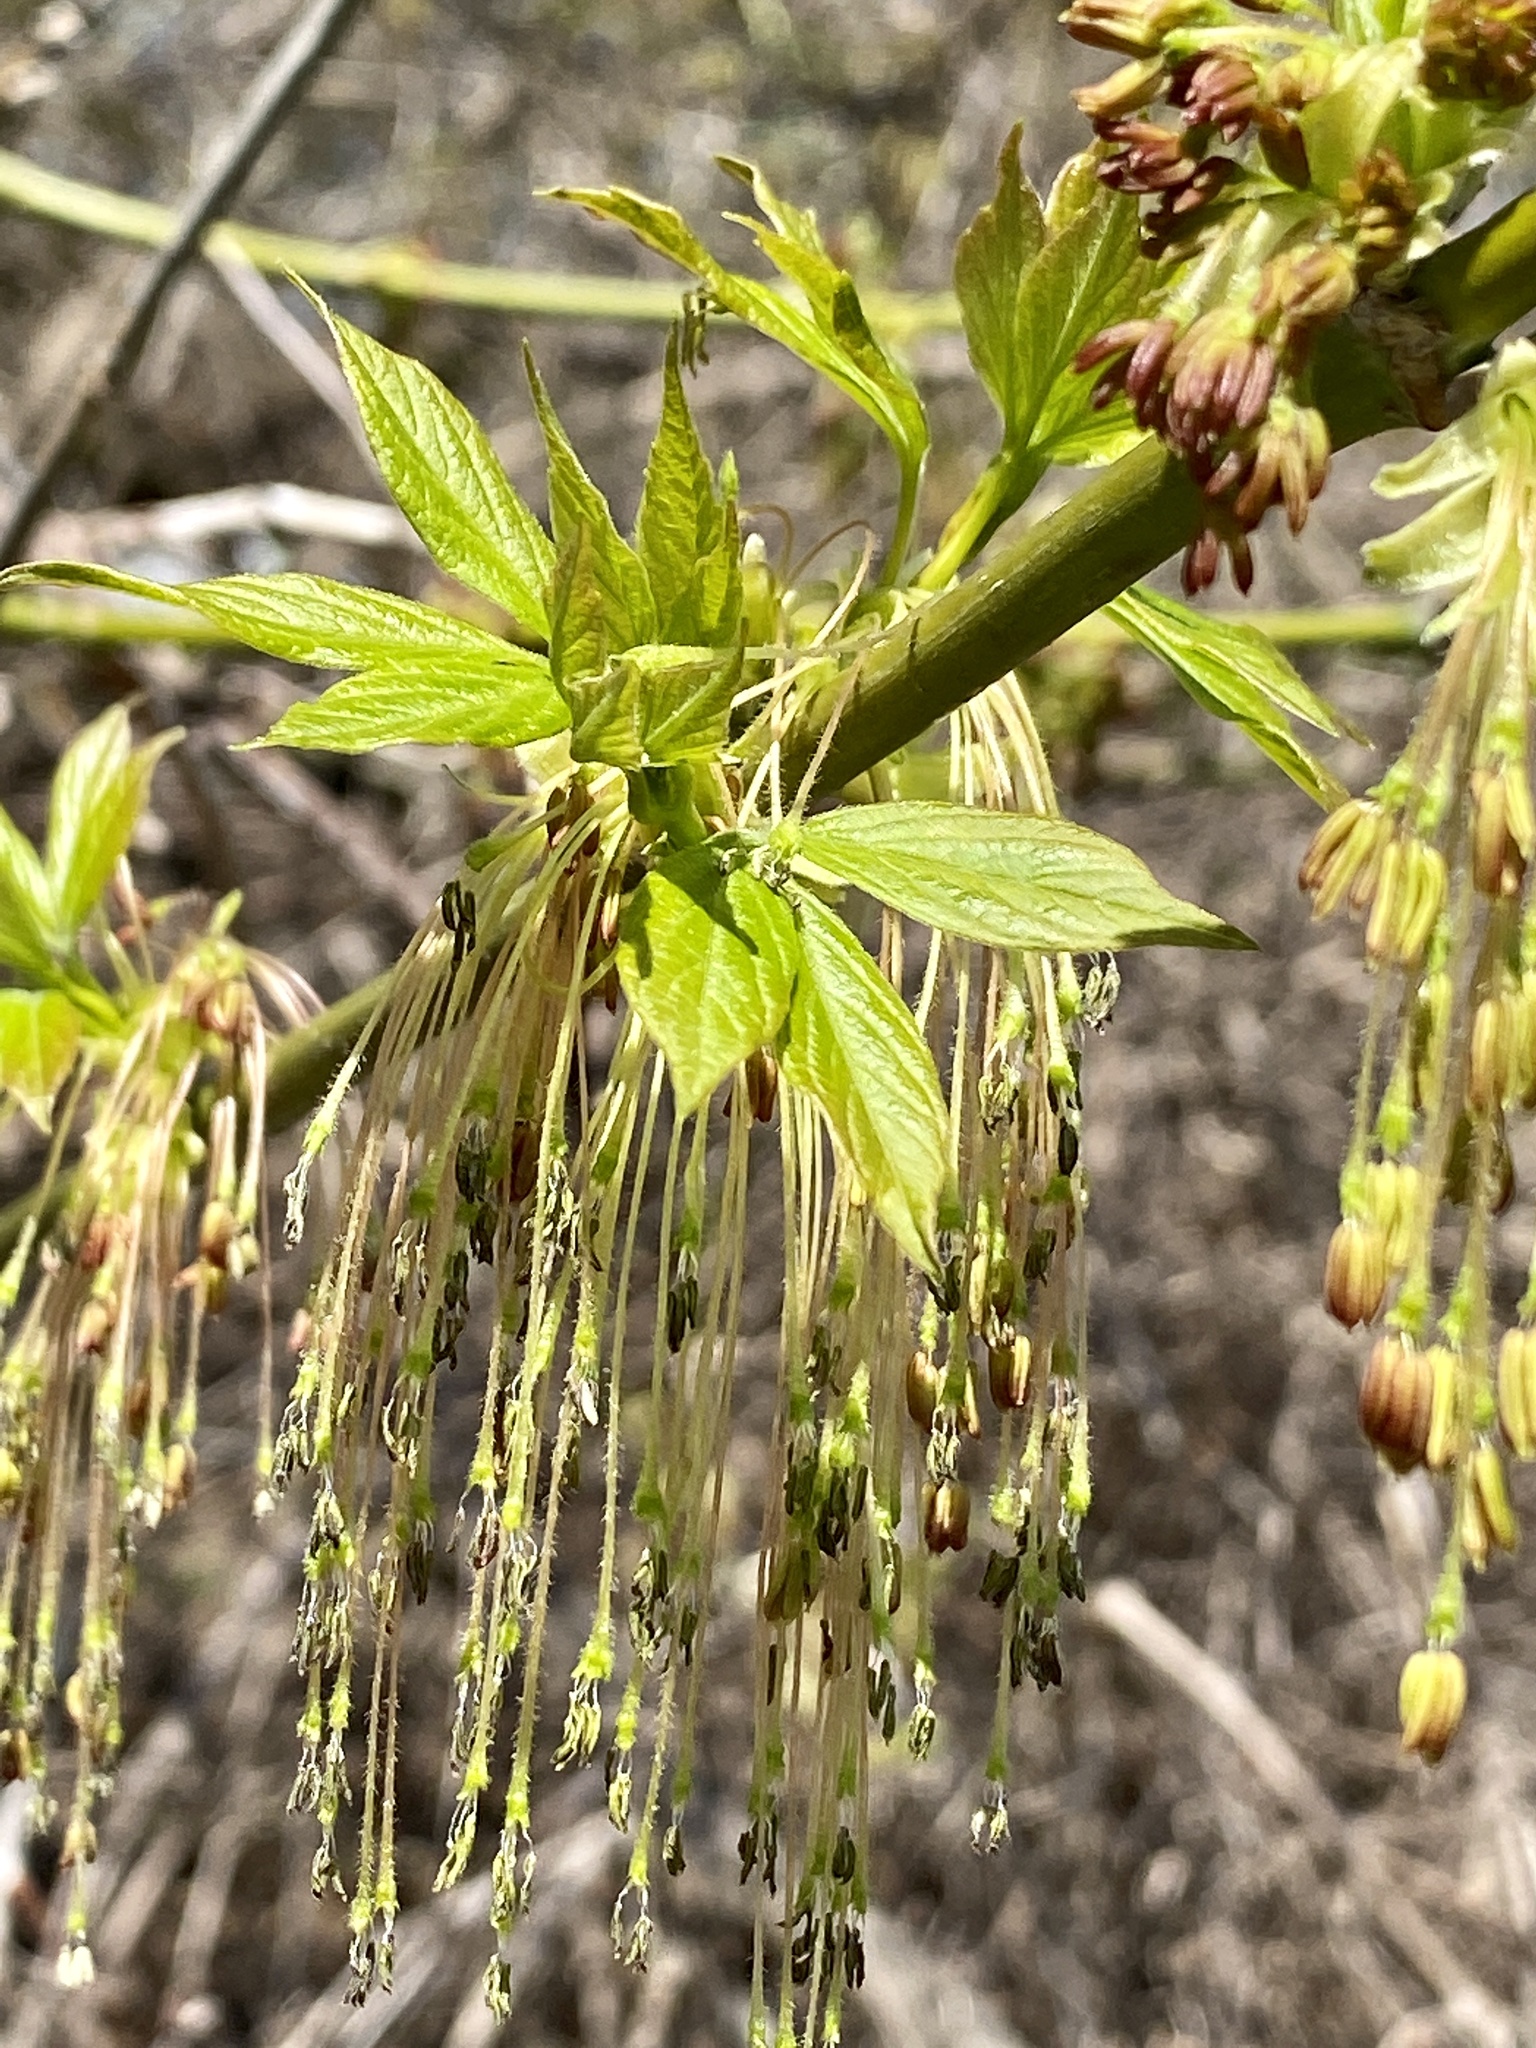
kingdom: Plantae
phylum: Tracheophyta
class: Magnoliopsida
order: Sapindales
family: Sapindaceae
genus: Acer
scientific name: Acer negundo
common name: Ashleaf maple
